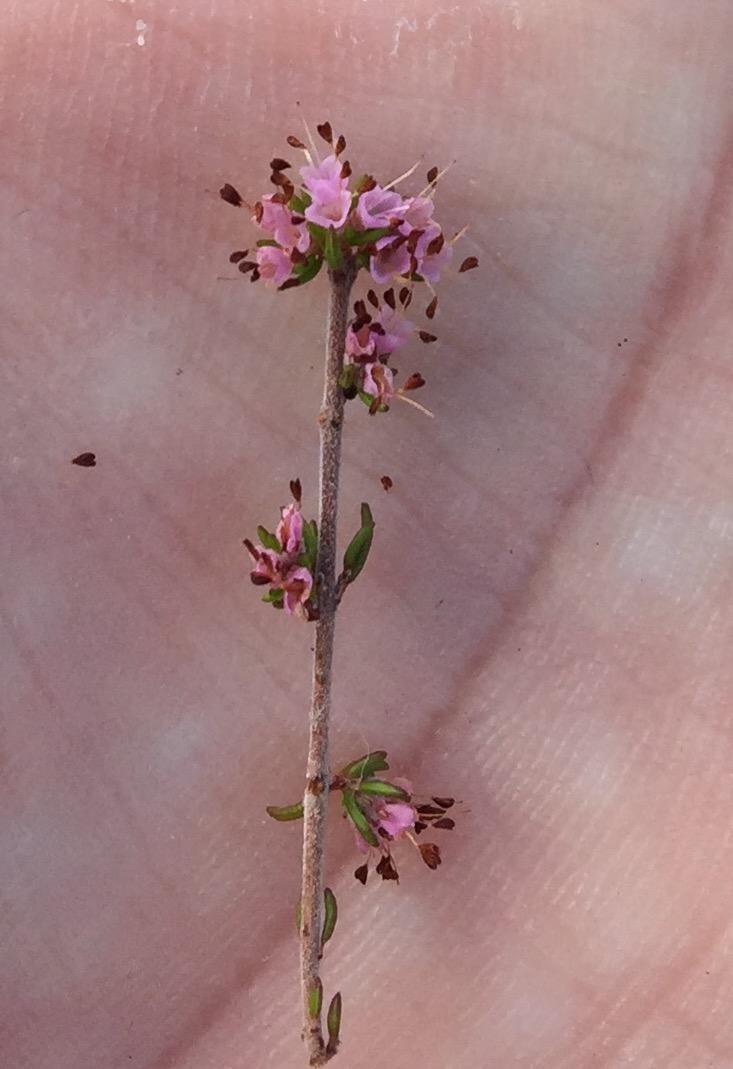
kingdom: Plantae
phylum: Tracheophyta
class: Magnoliopsida
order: Ericales
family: Ericaceae
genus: Erica
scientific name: Erica anguliger
